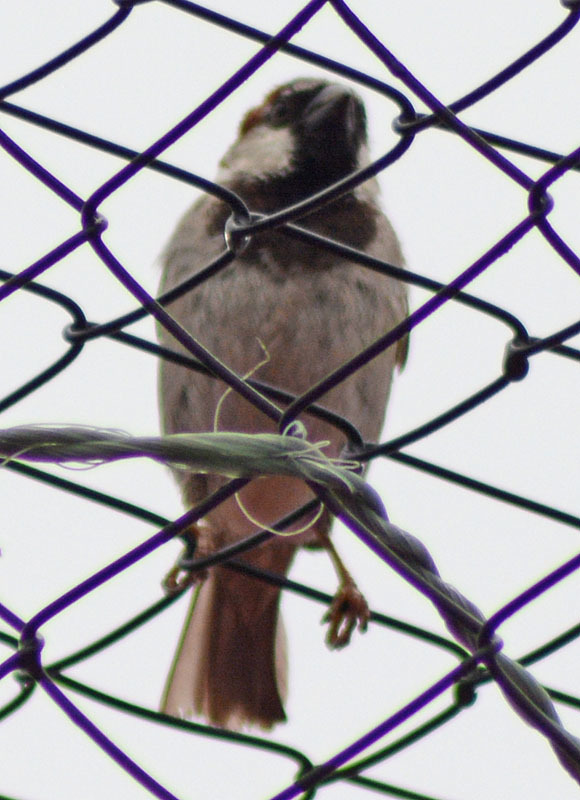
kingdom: Animalia
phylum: Chordata
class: Aves
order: Passeriformes
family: Passeridae
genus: Passer
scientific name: Passer domesticus
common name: House sparrow
